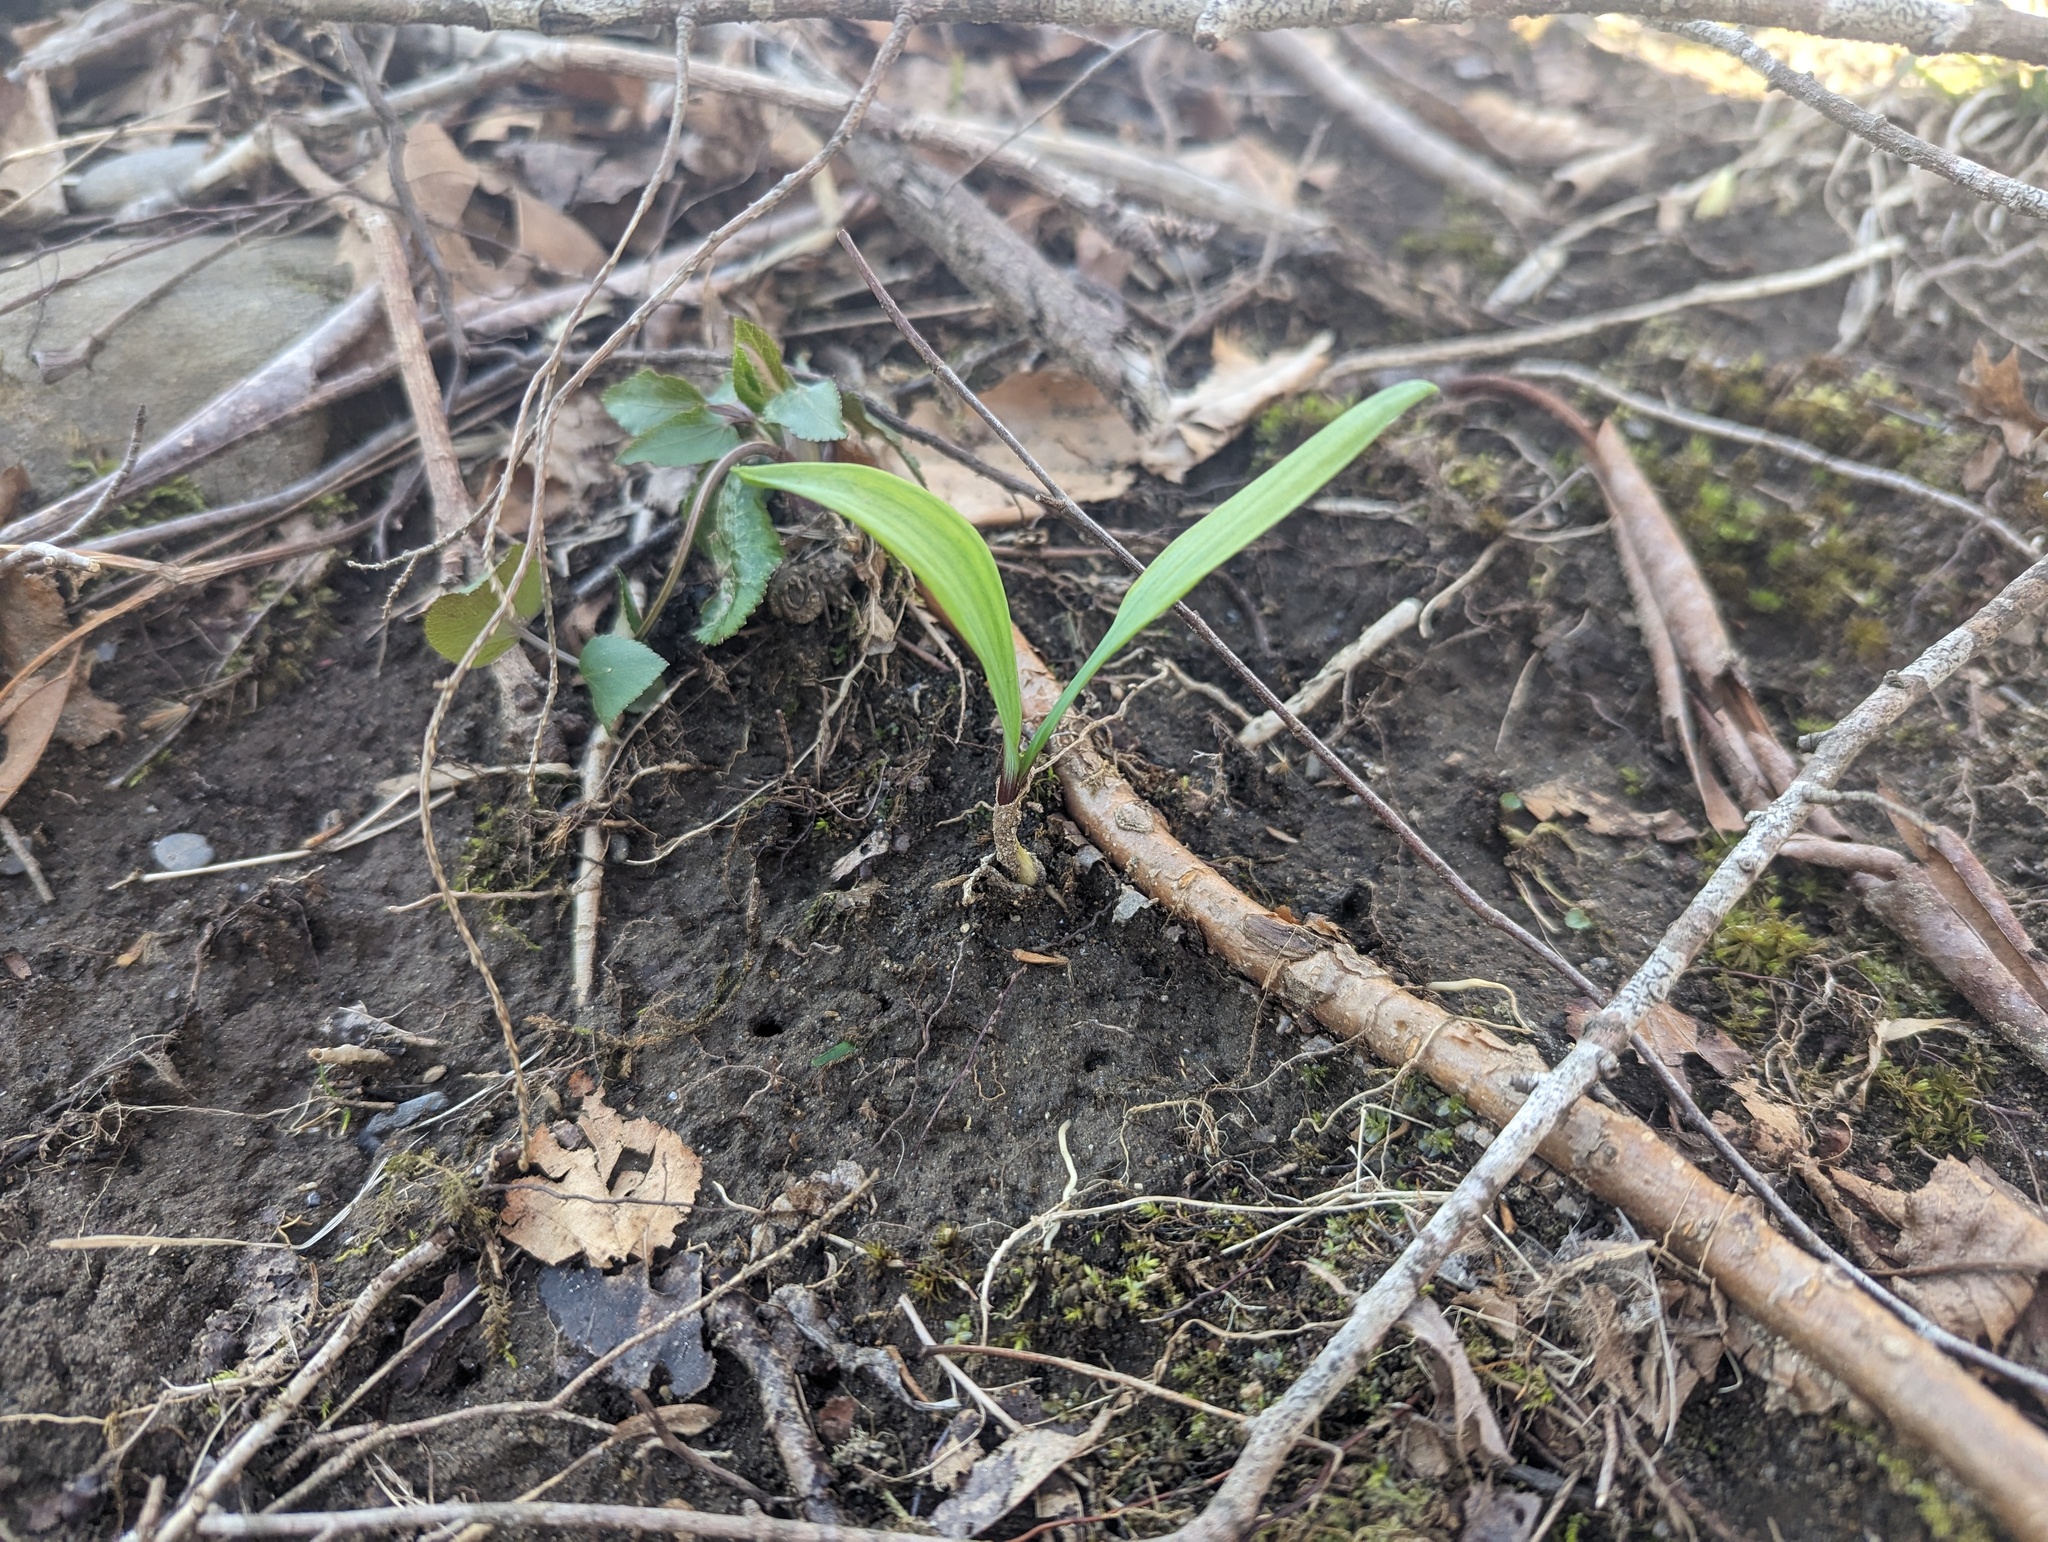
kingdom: Plantae
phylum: Tracheophyta
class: Liliopsida
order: Asparagales
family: Amaryllidaceae
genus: Allium
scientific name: Allium tricoccum
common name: Ramp
